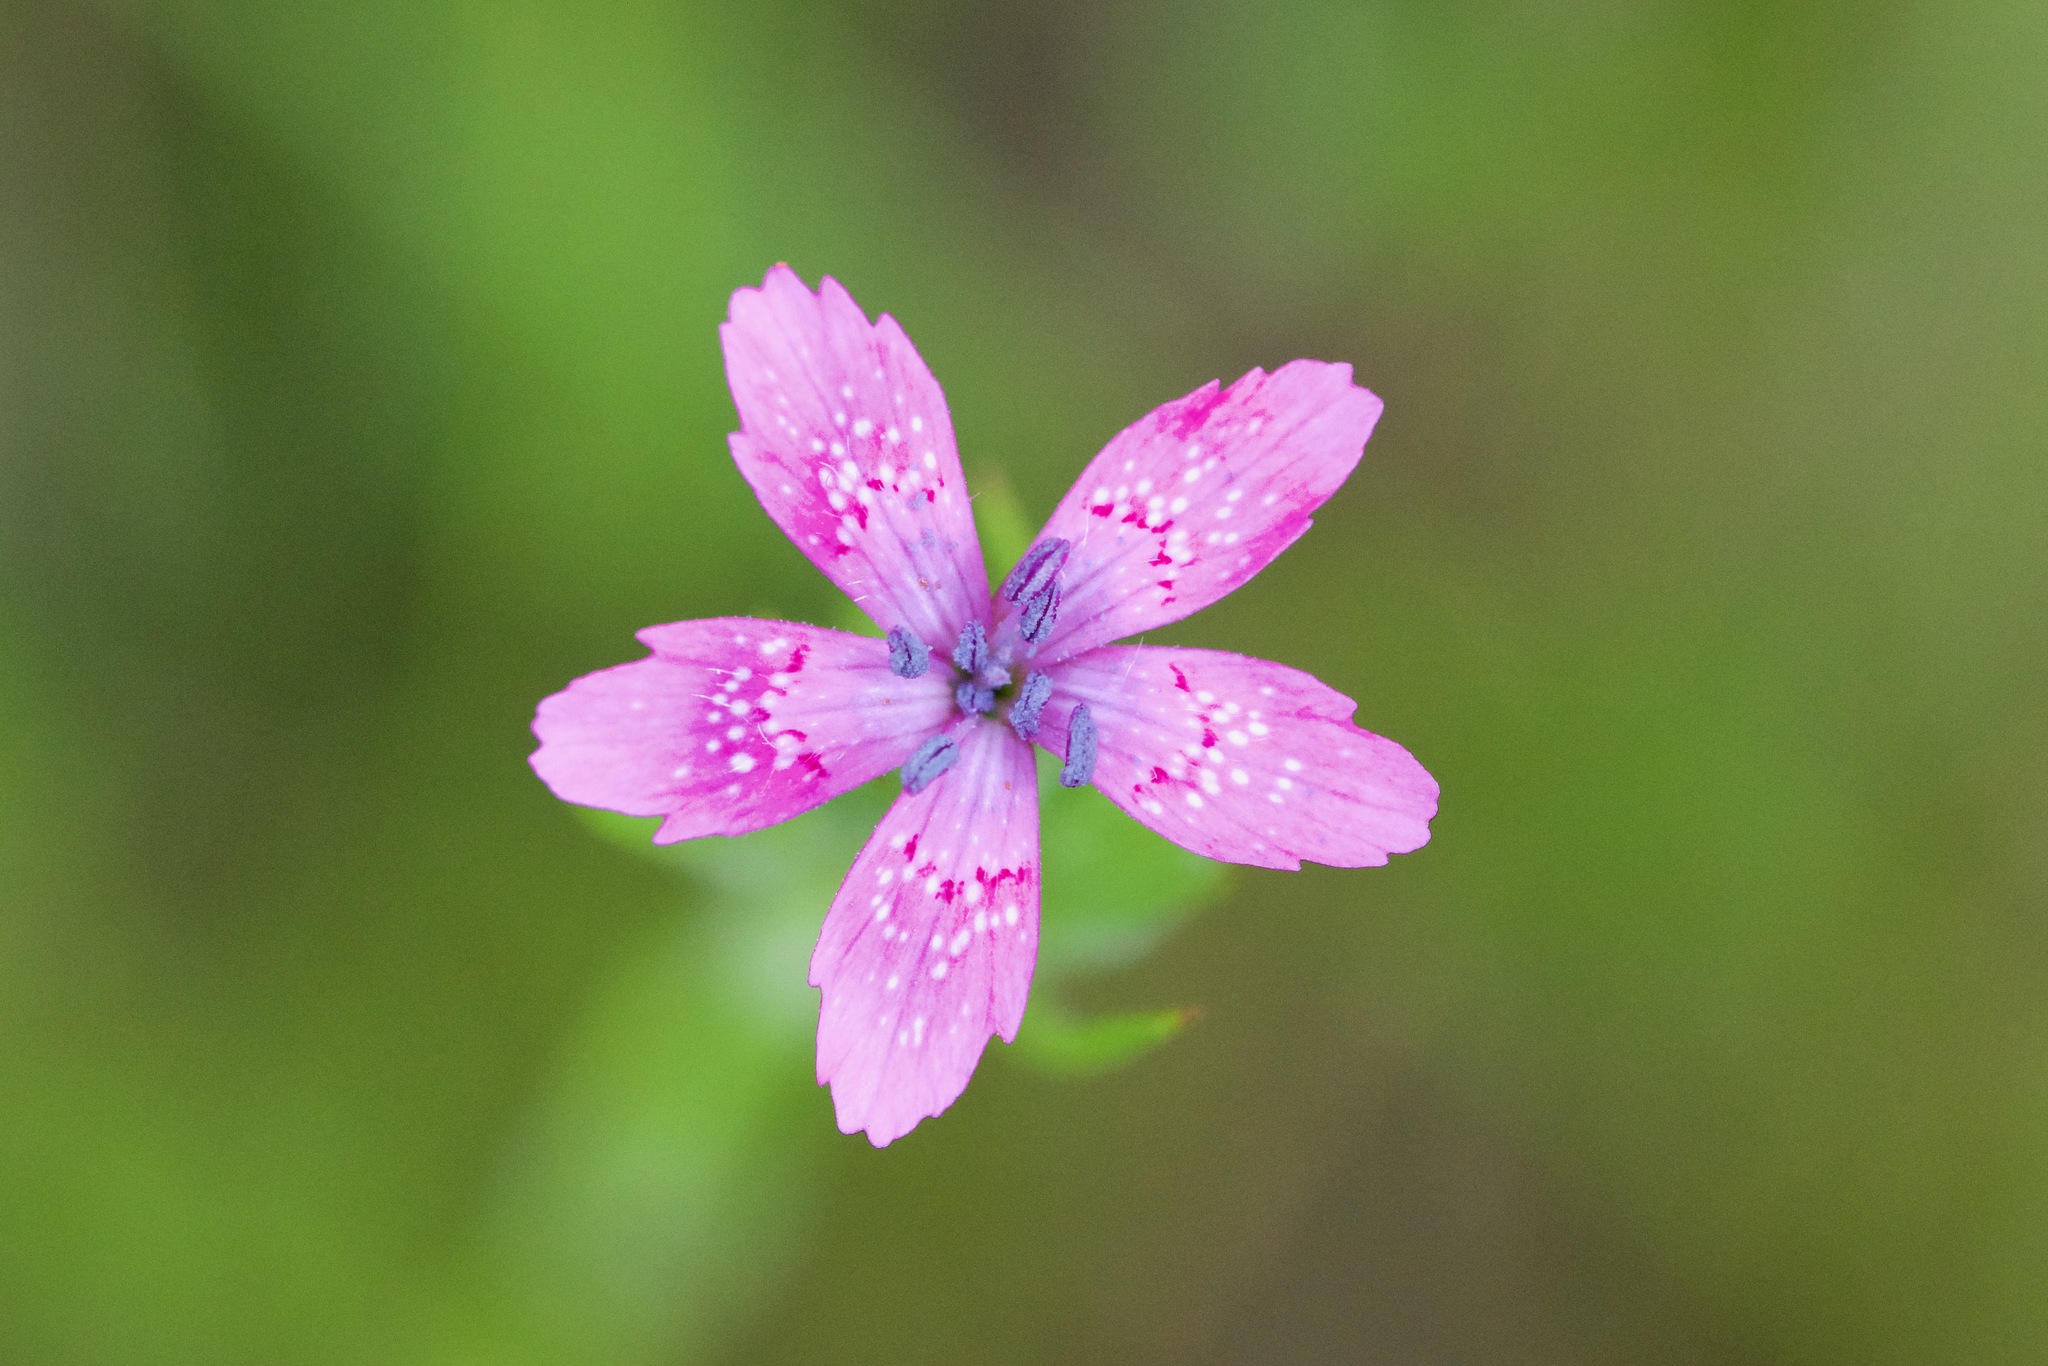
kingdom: Plantae
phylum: Tracheophyta
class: Magnoliopsida
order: Caryophyllales
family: Caryophyllaceae
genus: Dianthus
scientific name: Dianthus armeria
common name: Deptford pink
